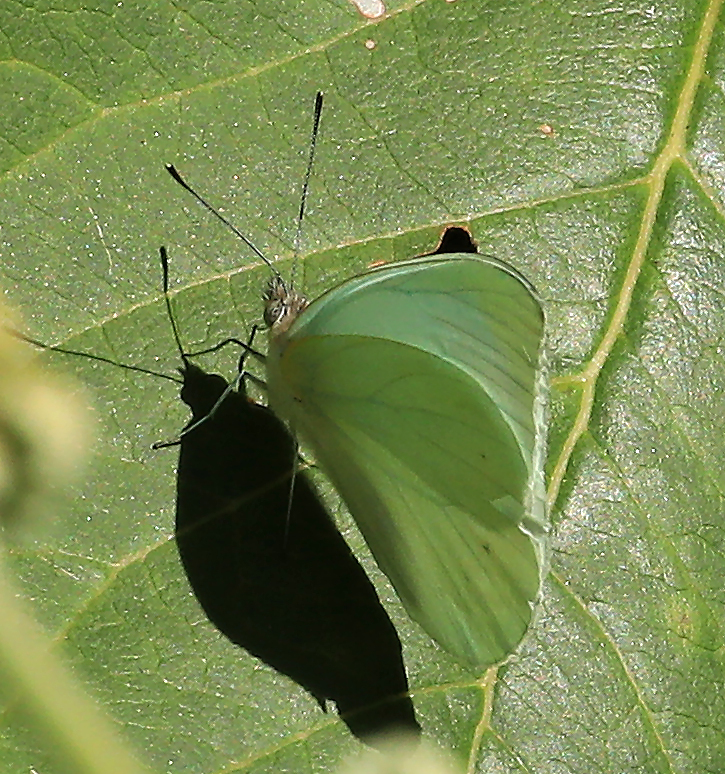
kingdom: Animalia
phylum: Arthropoda
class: Insecta
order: Lepidoptera
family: Pieridae
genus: Catopsilia
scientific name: Catopsilia florella
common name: African migrant
